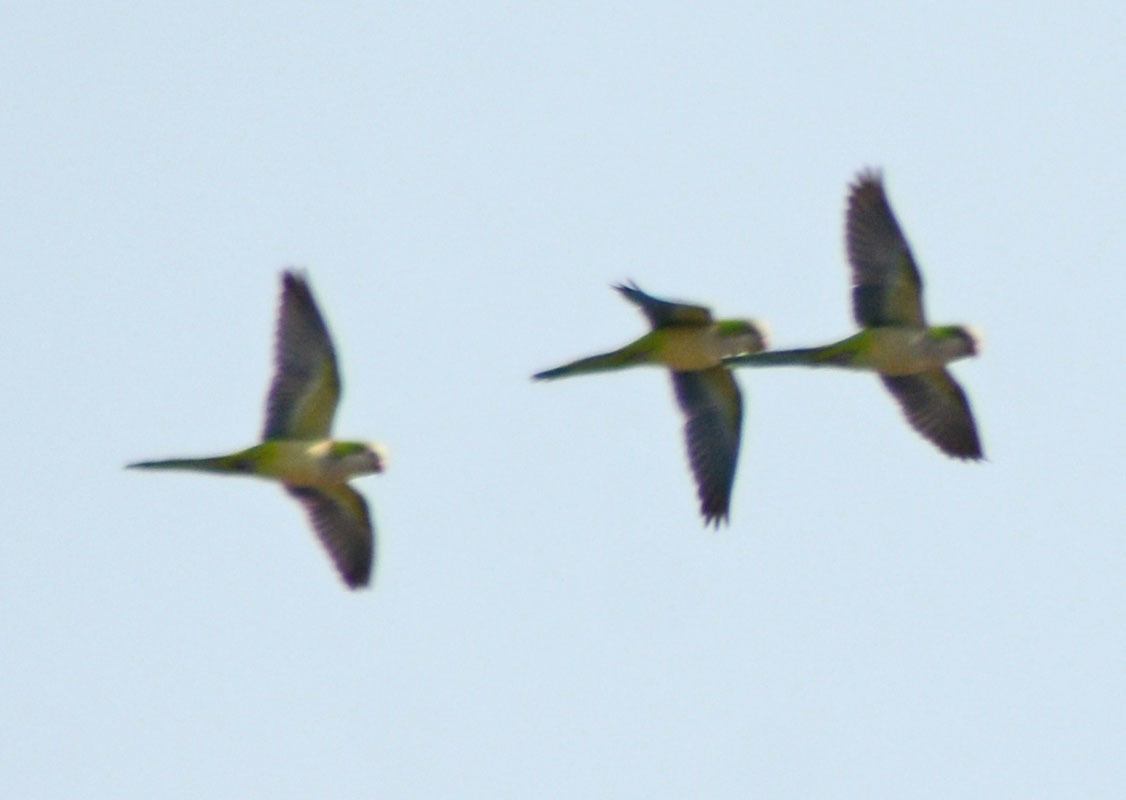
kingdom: Animalia
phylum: Chordata
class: Aves
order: Psittaciformes
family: Psittacidae
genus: Myiopsitta
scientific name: Myiopsitta monachus
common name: Monk parakeet
